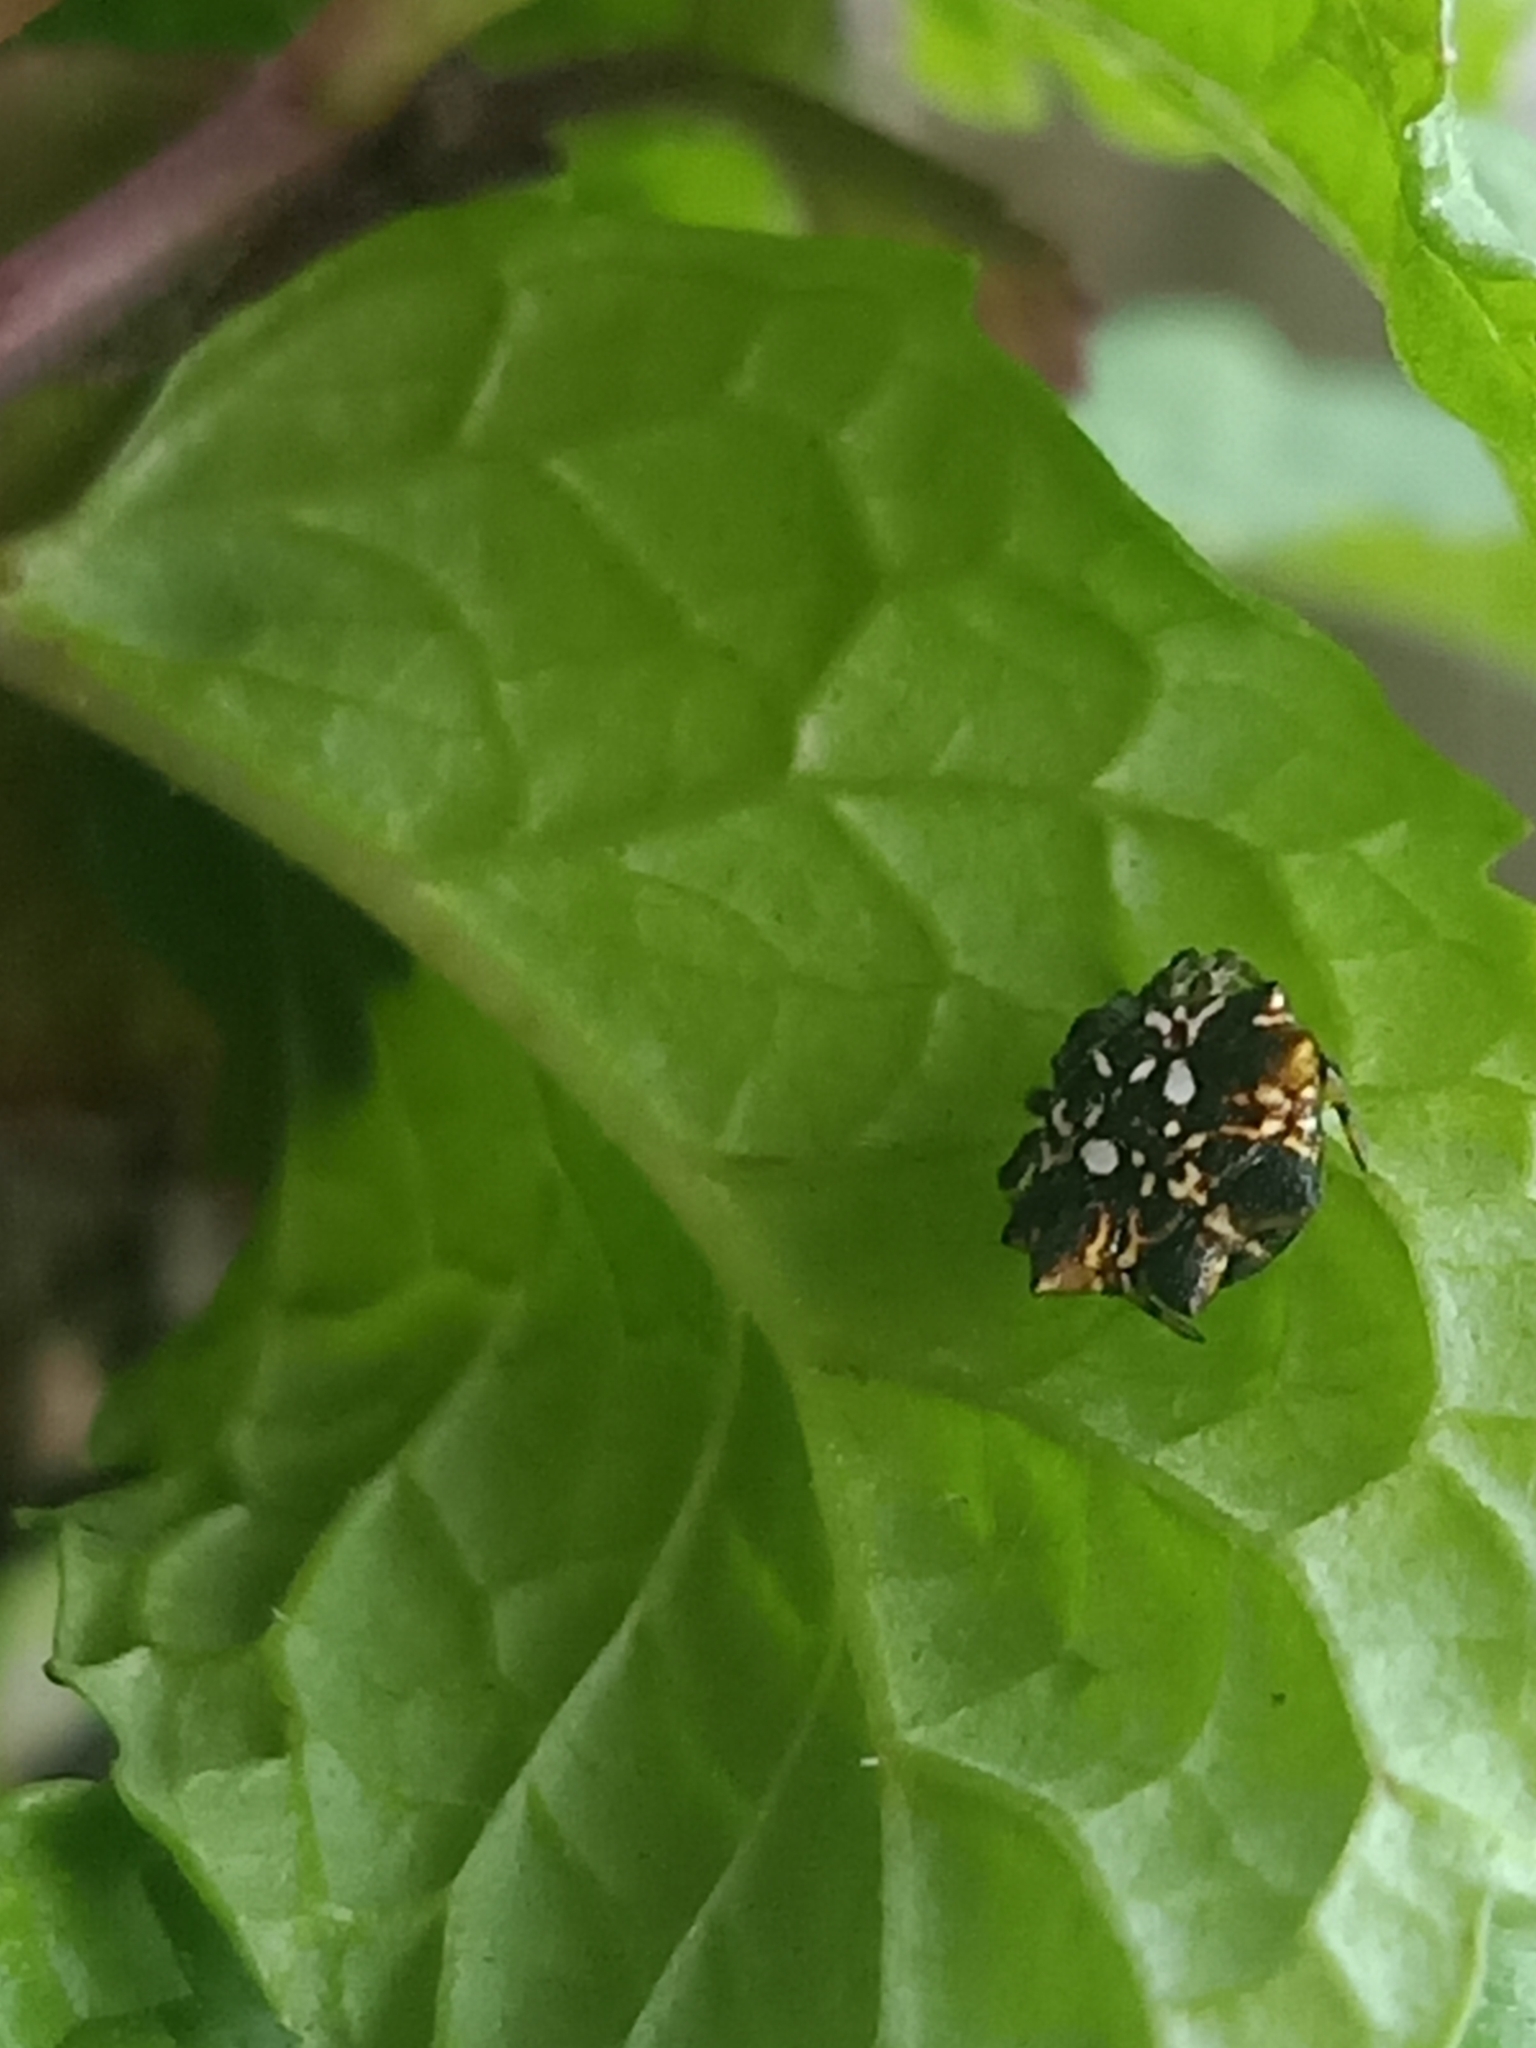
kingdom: Animalia
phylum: Arthropoda
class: Arachnida
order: Araneae
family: Araneidae
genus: Thelacantha
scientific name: Thelacantha brevispina
